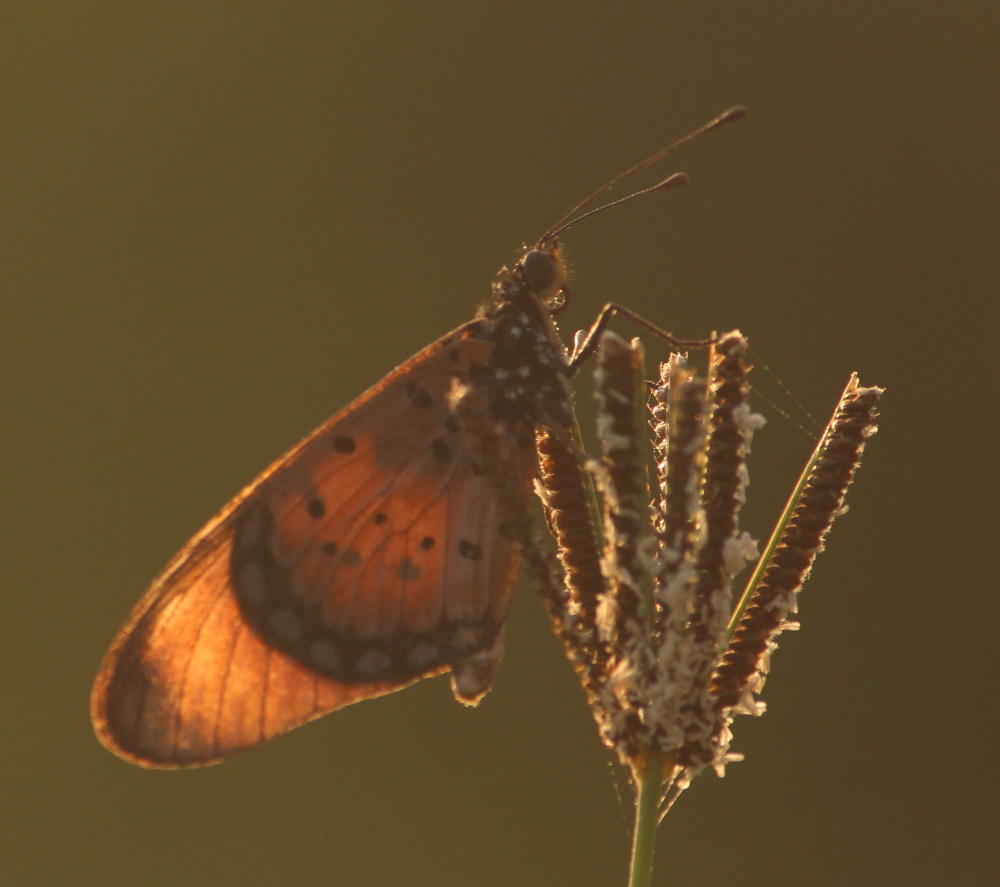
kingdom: Animalia
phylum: Arthropoda
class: Insecta
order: Lepidoptera
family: Nymphalidae
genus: Stephenia
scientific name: Stephenia
